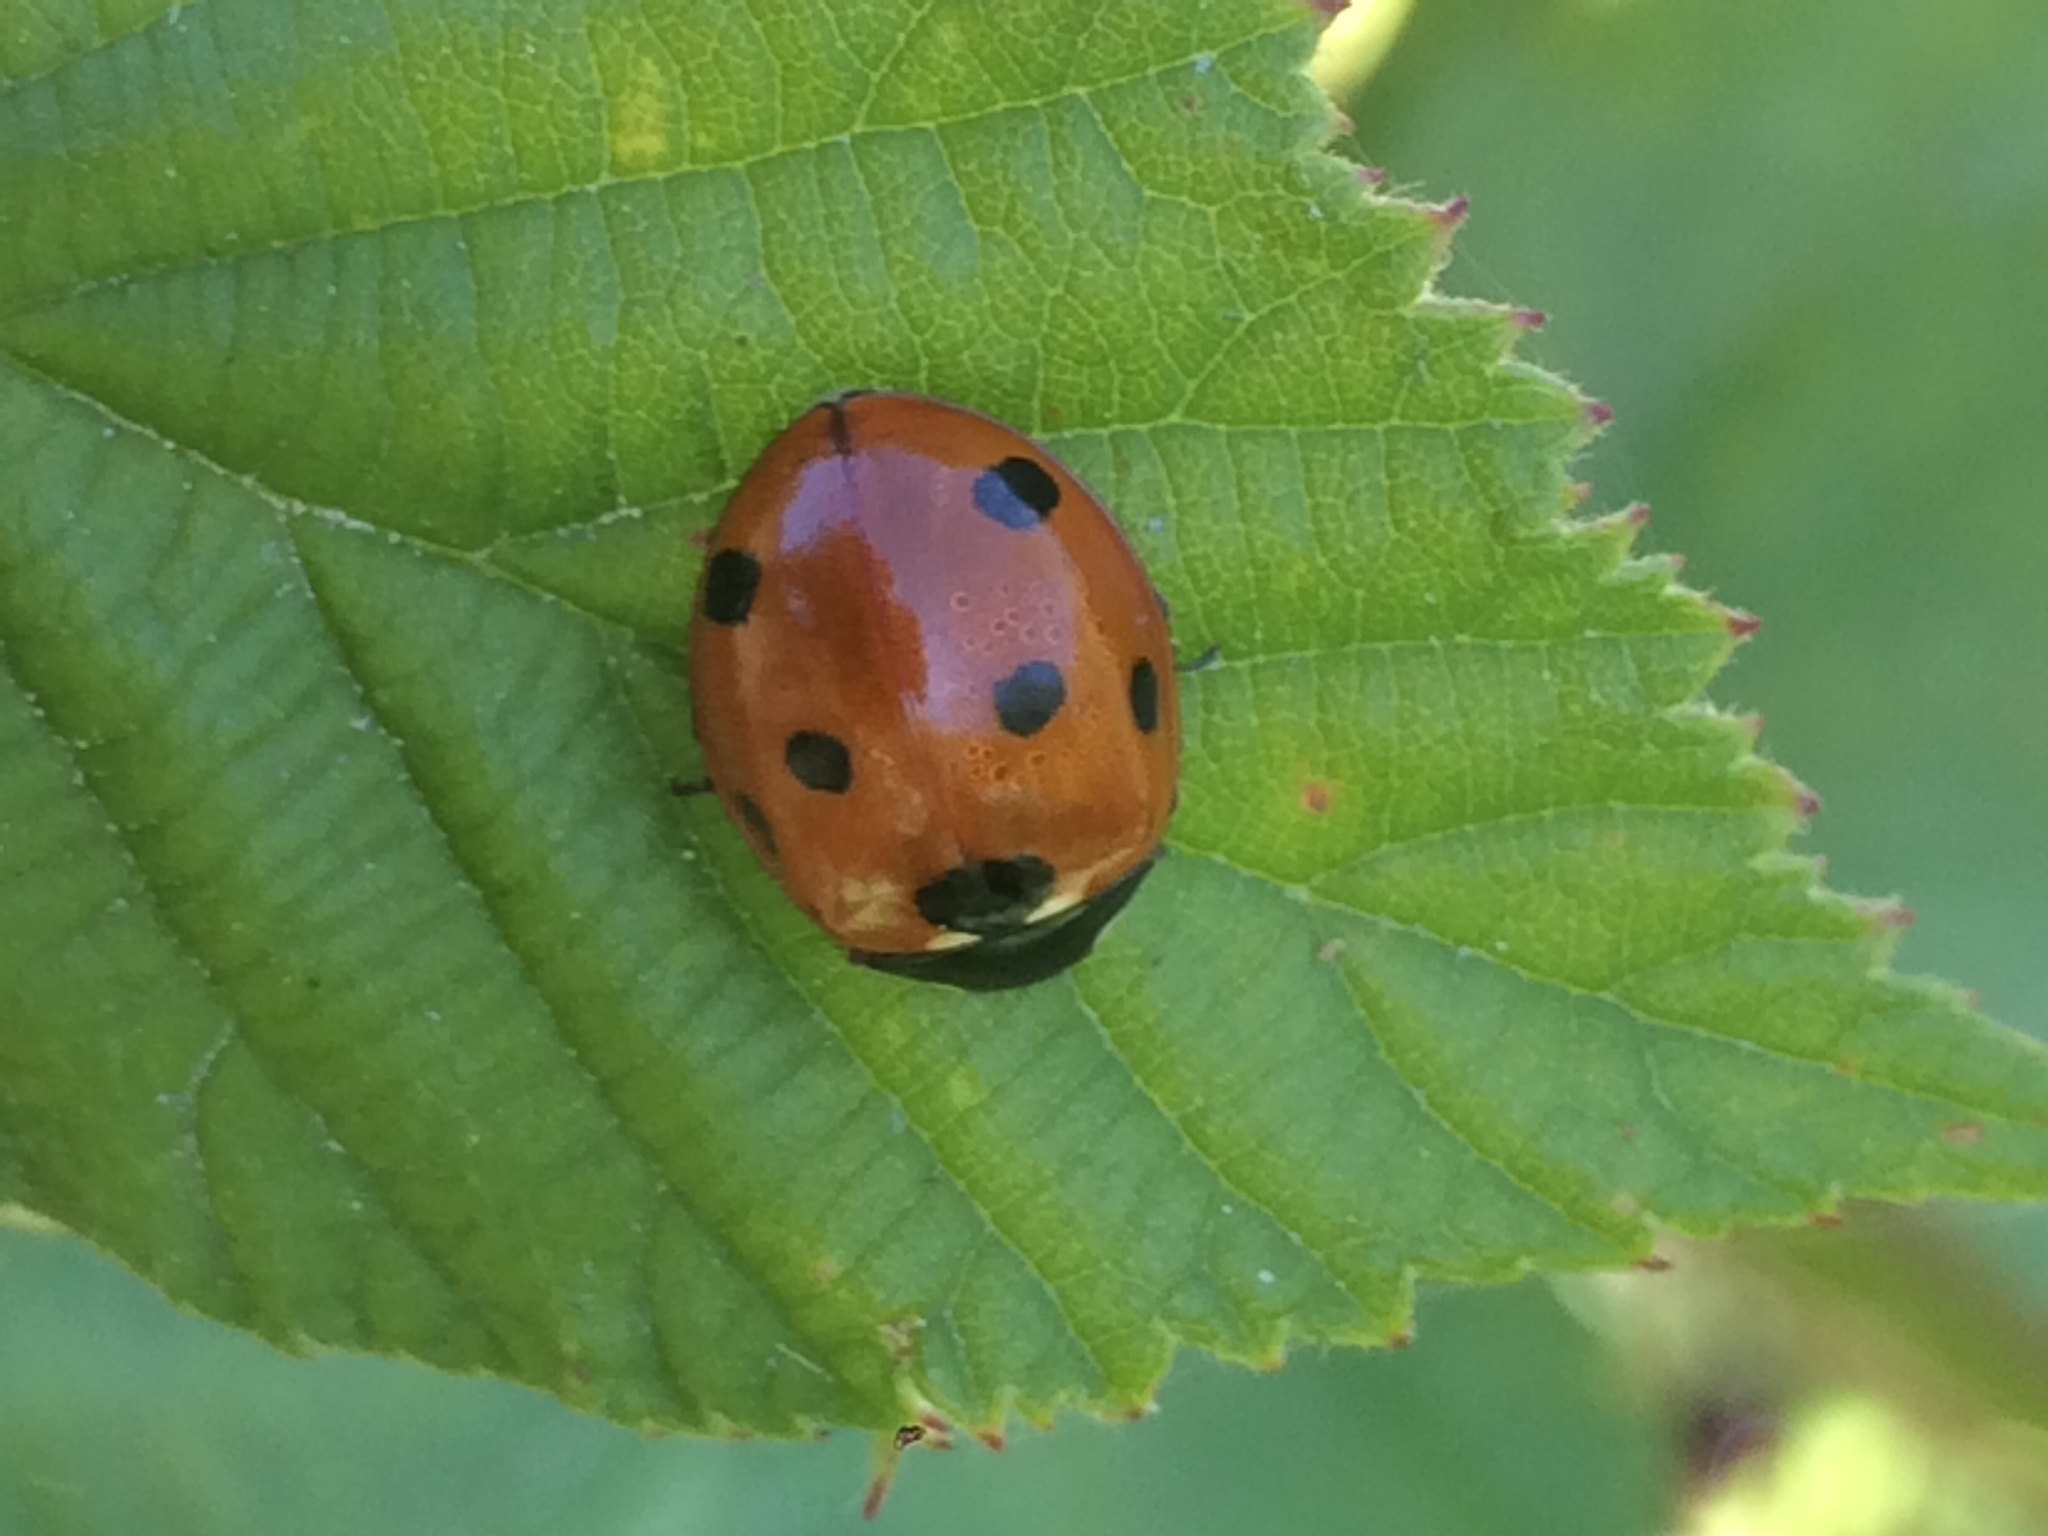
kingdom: Animalia
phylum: Arthropoda
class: Insecta
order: Coleoptera
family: Coccinellidae
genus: Coccinella
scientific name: Coccinella septempunctata
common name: Sevenspotted lady beetle
